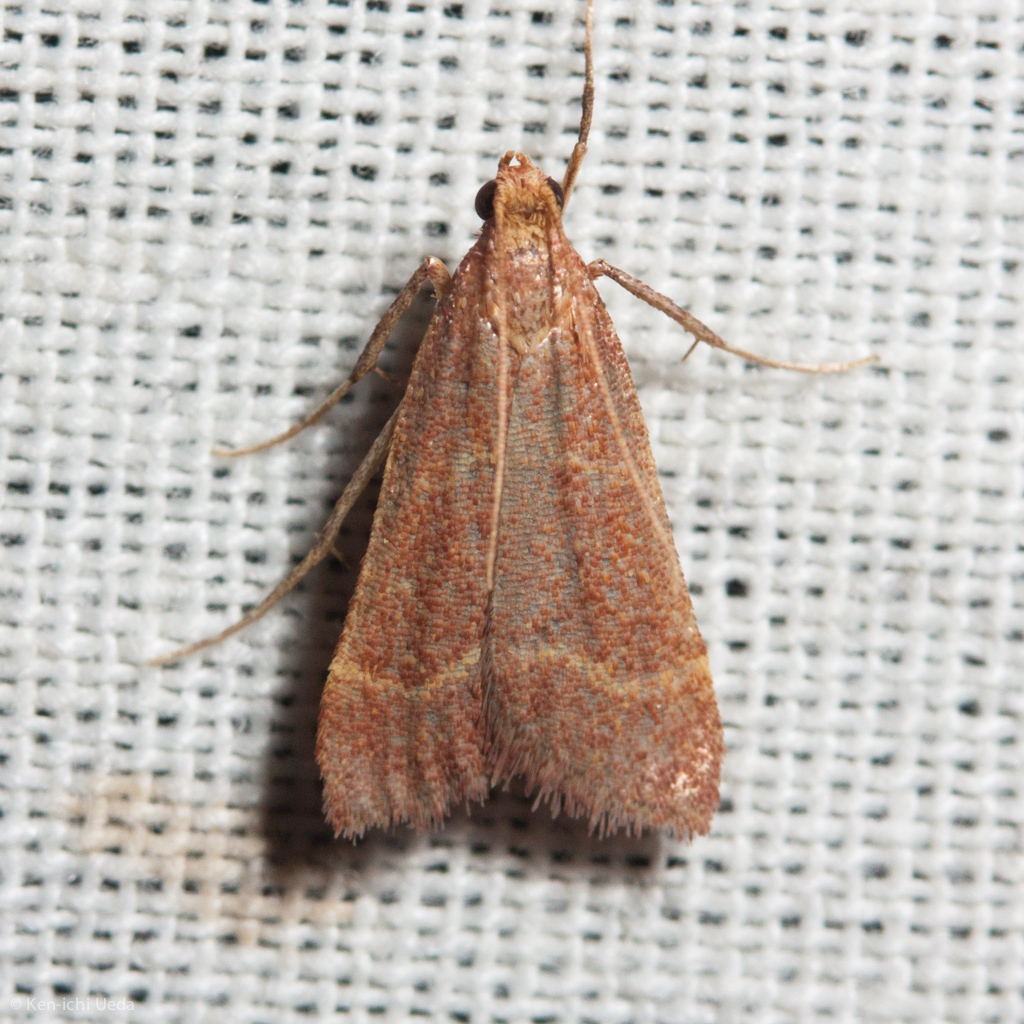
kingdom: Animalia
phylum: Arthropoda
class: Insecta
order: Lepidoptera
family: Pyralidae
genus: Arta
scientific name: Arta epicoenalis
